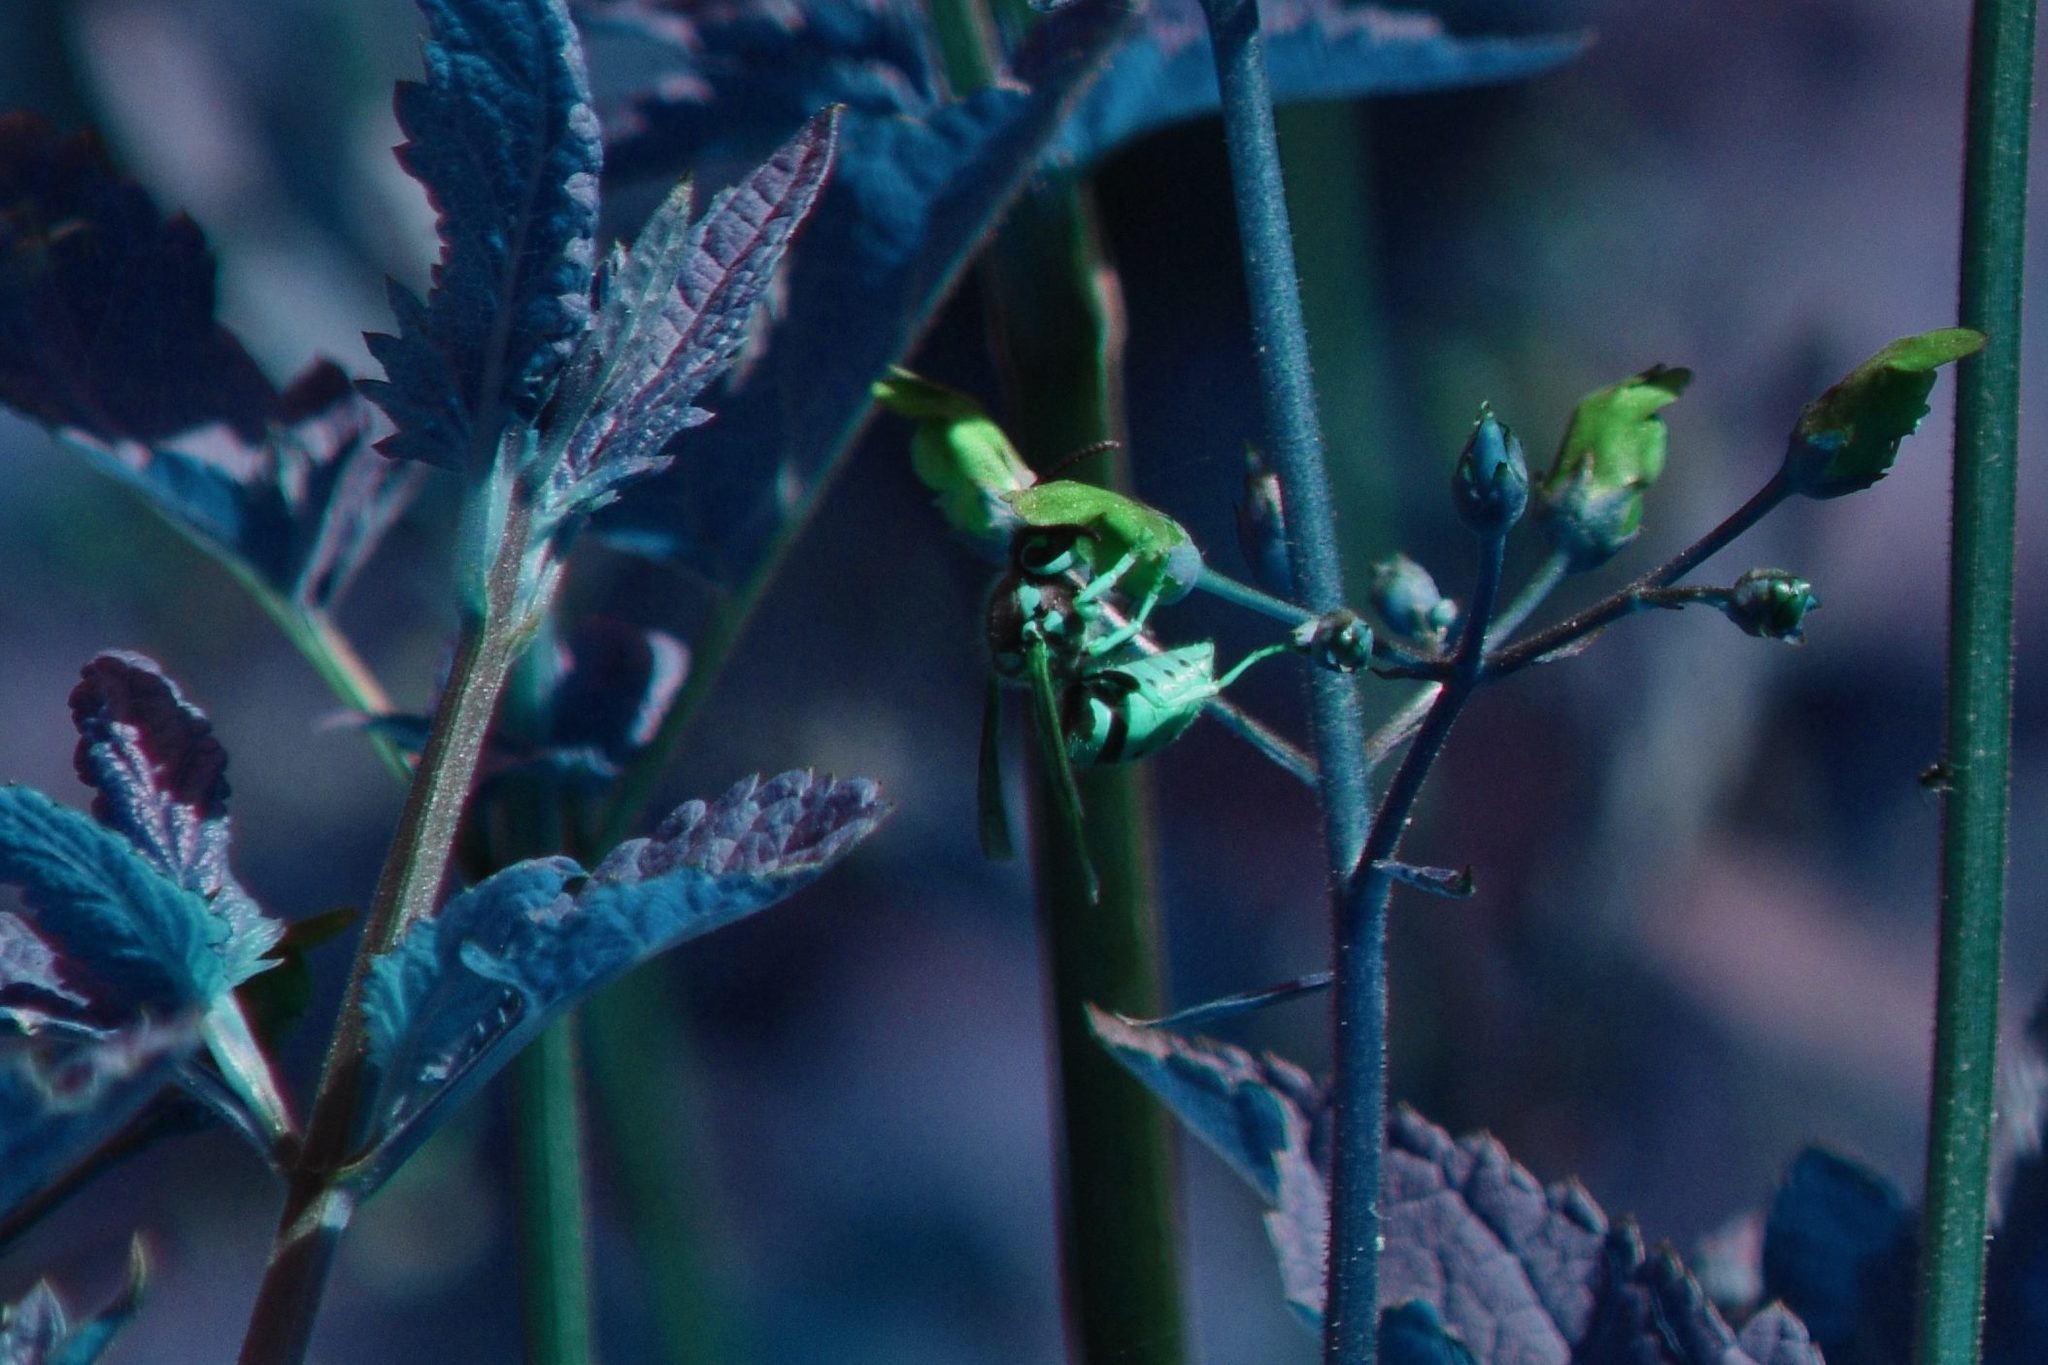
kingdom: Animalia
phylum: Arthropoda
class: Insecta
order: Hymenoptera
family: Vespidae
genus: Vespula
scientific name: Vespula pensylvanica
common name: Western yellowjacket
